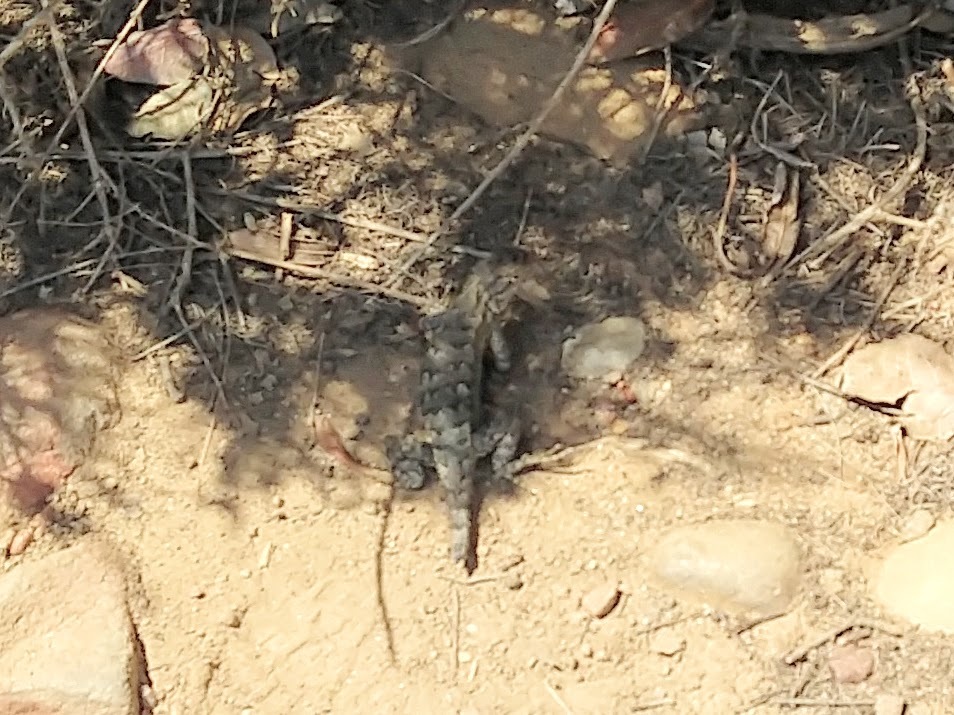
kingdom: Animalia
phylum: Chordata
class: Squamata
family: Phrynosomatidae
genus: Sceloporus
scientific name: Sceloporus occidentalis
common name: Western fence lizard
